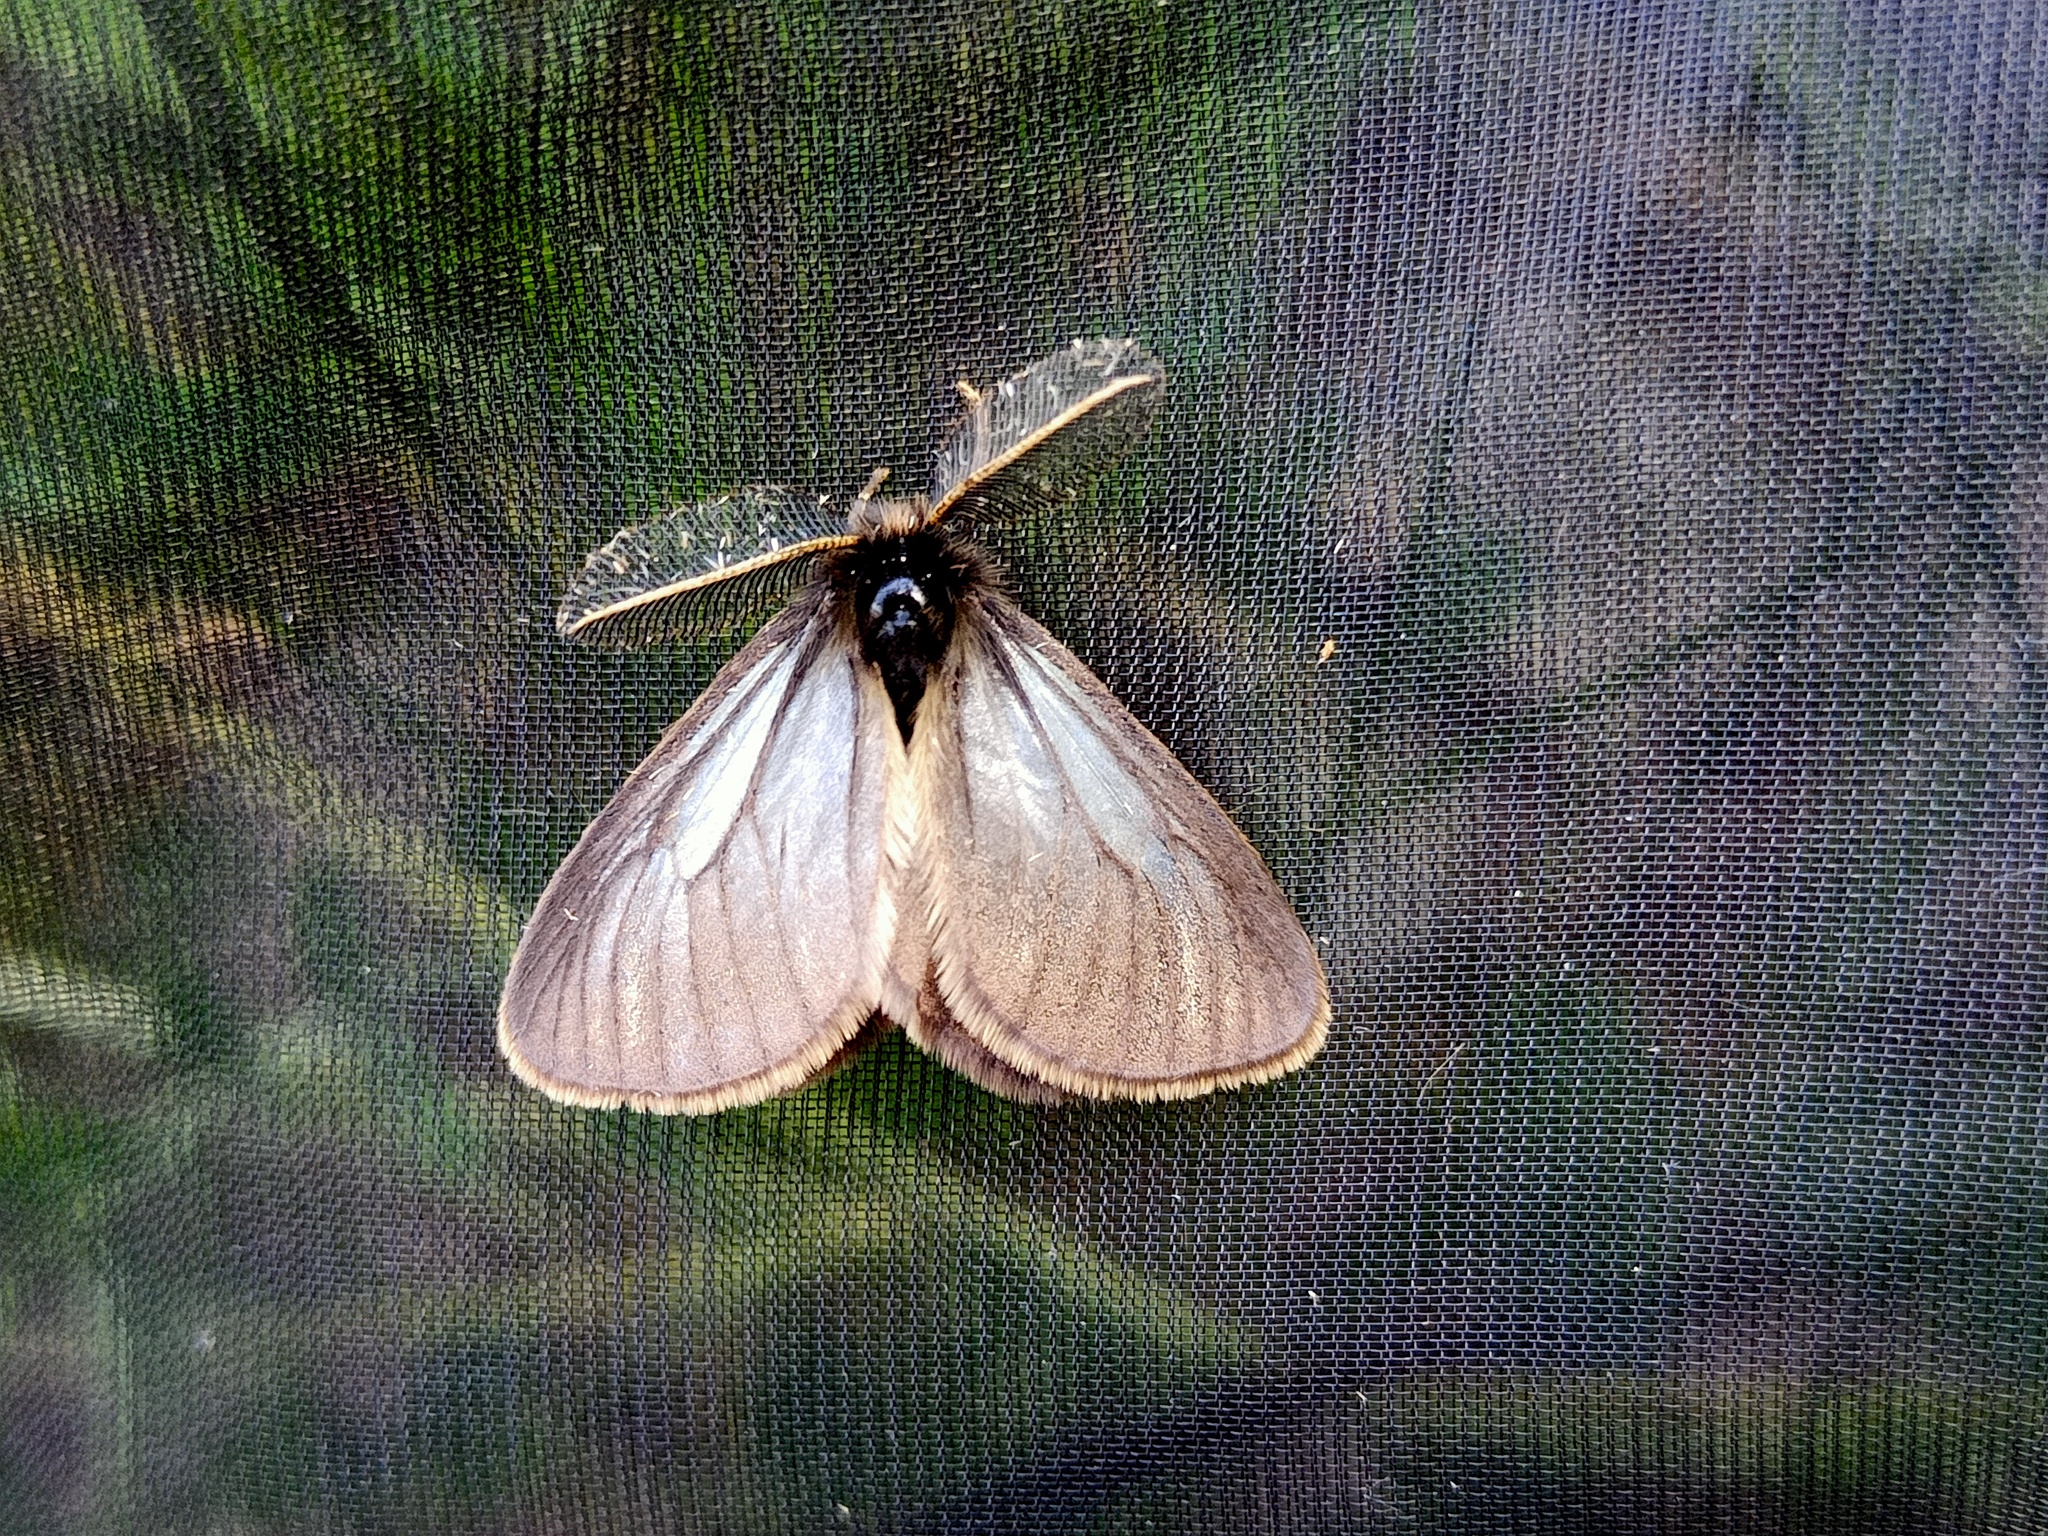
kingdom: Animalia
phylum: Arthropoda
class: Insecta
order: Lepidoptera
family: Erebidae
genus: Penthophera
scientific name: Penthophera morio
